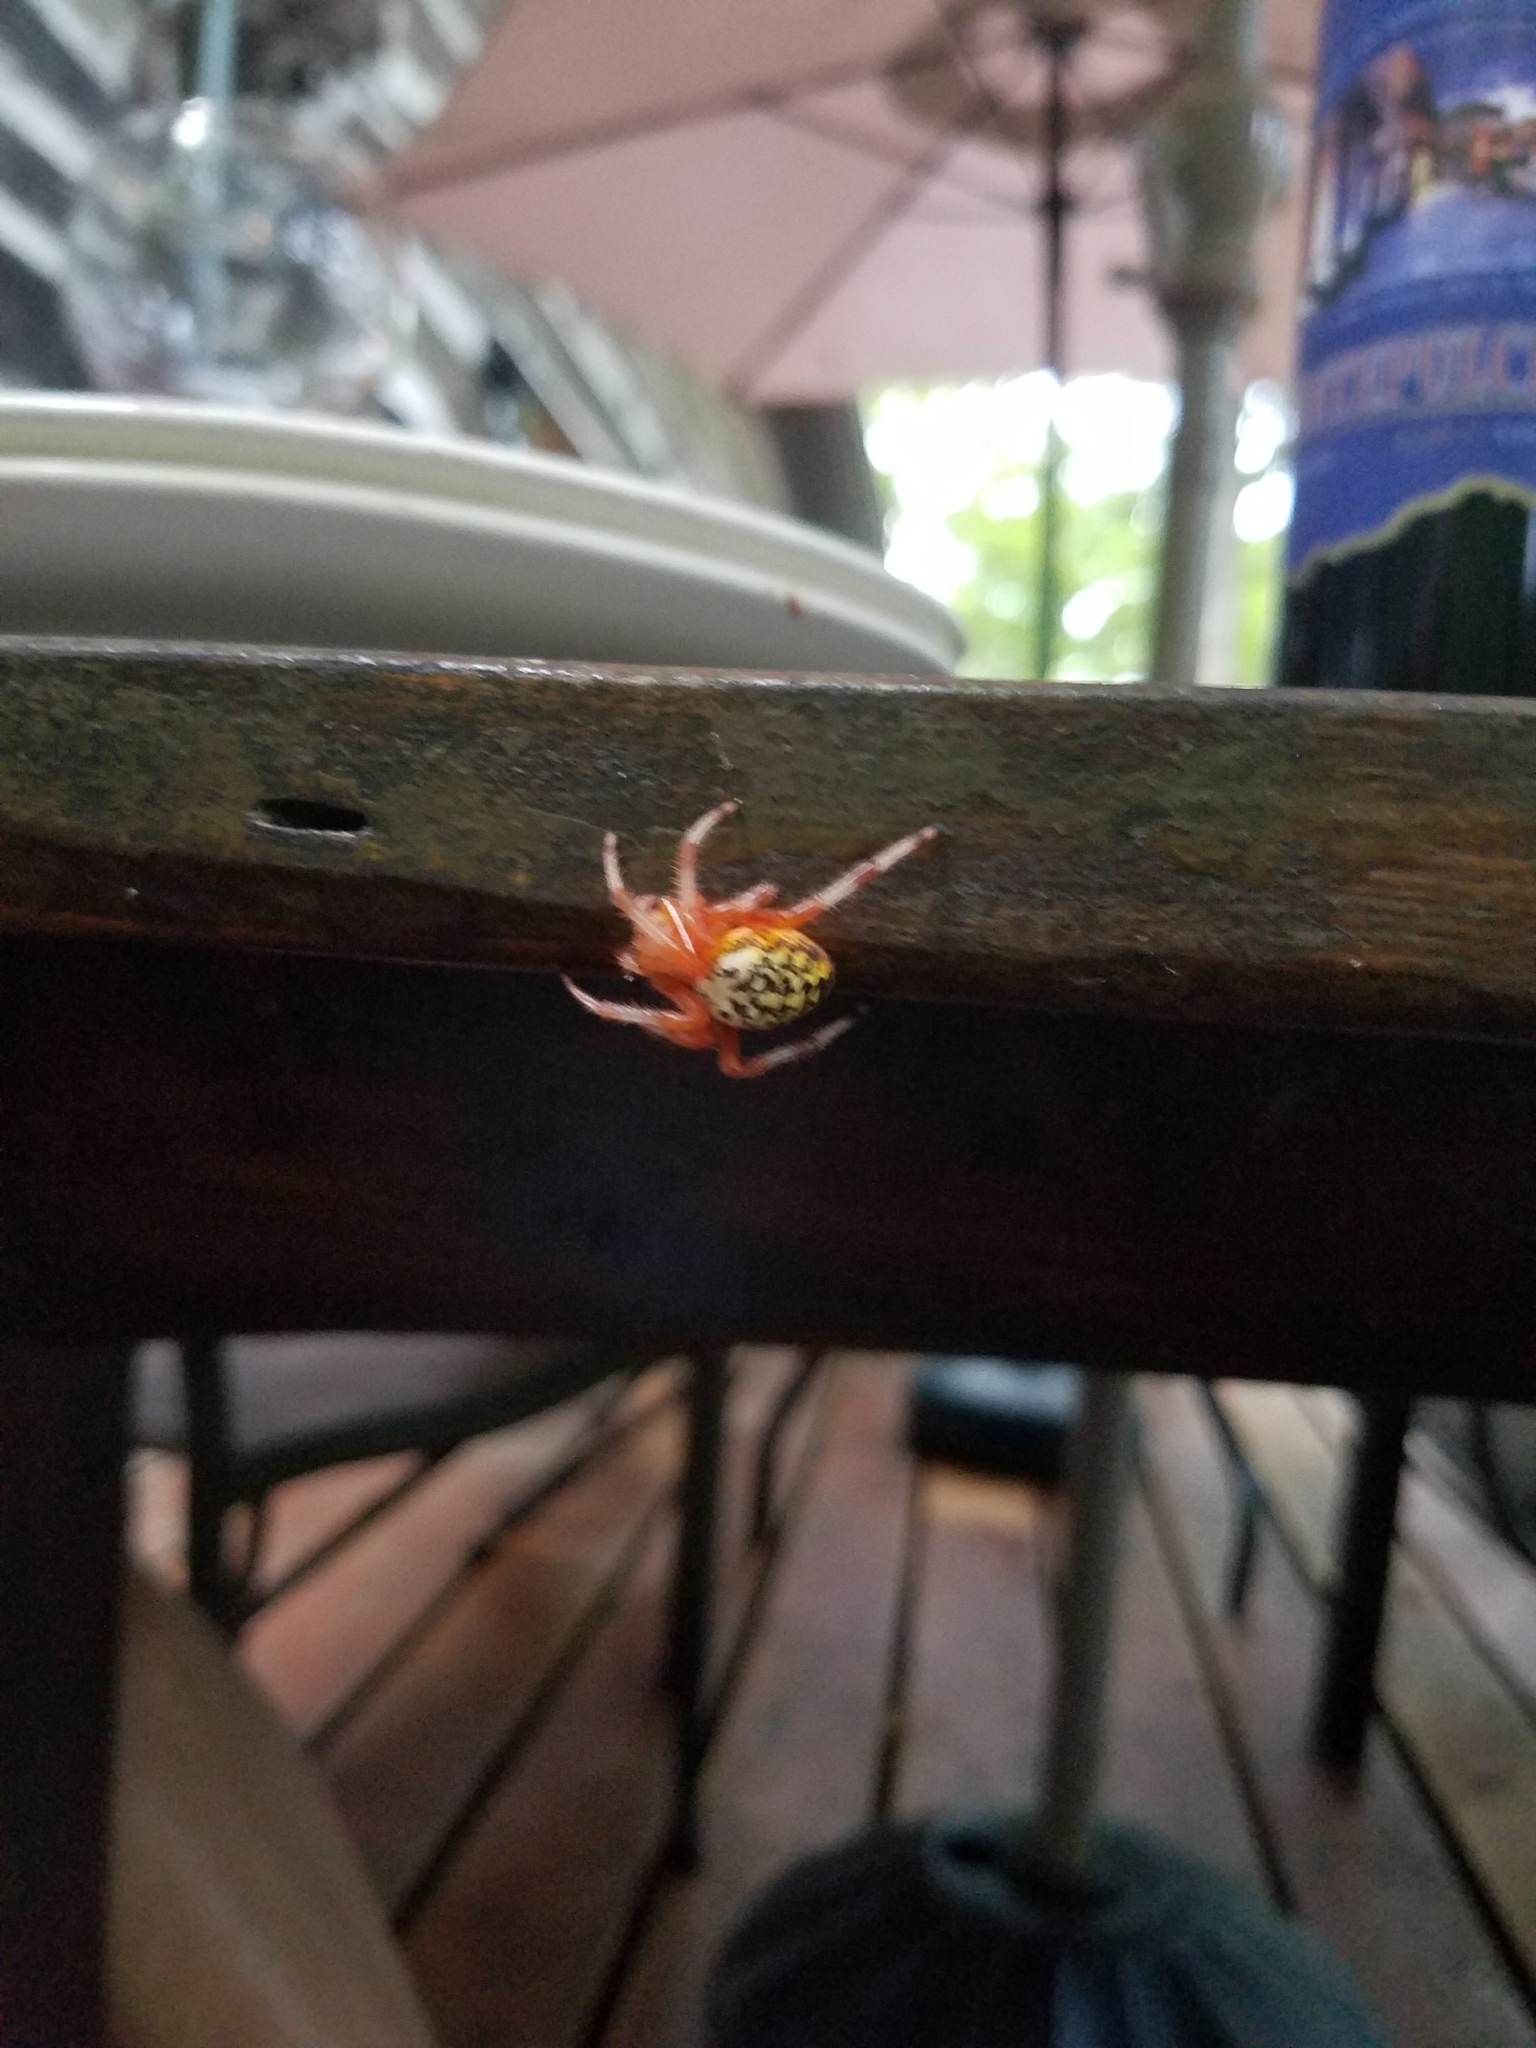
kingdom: Animalia
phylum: Arthropoda
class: Arachnida
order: Araneae
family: Araneidae
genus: Araneus
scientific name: Araneus marmoreus
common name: Marbled orbweaver
